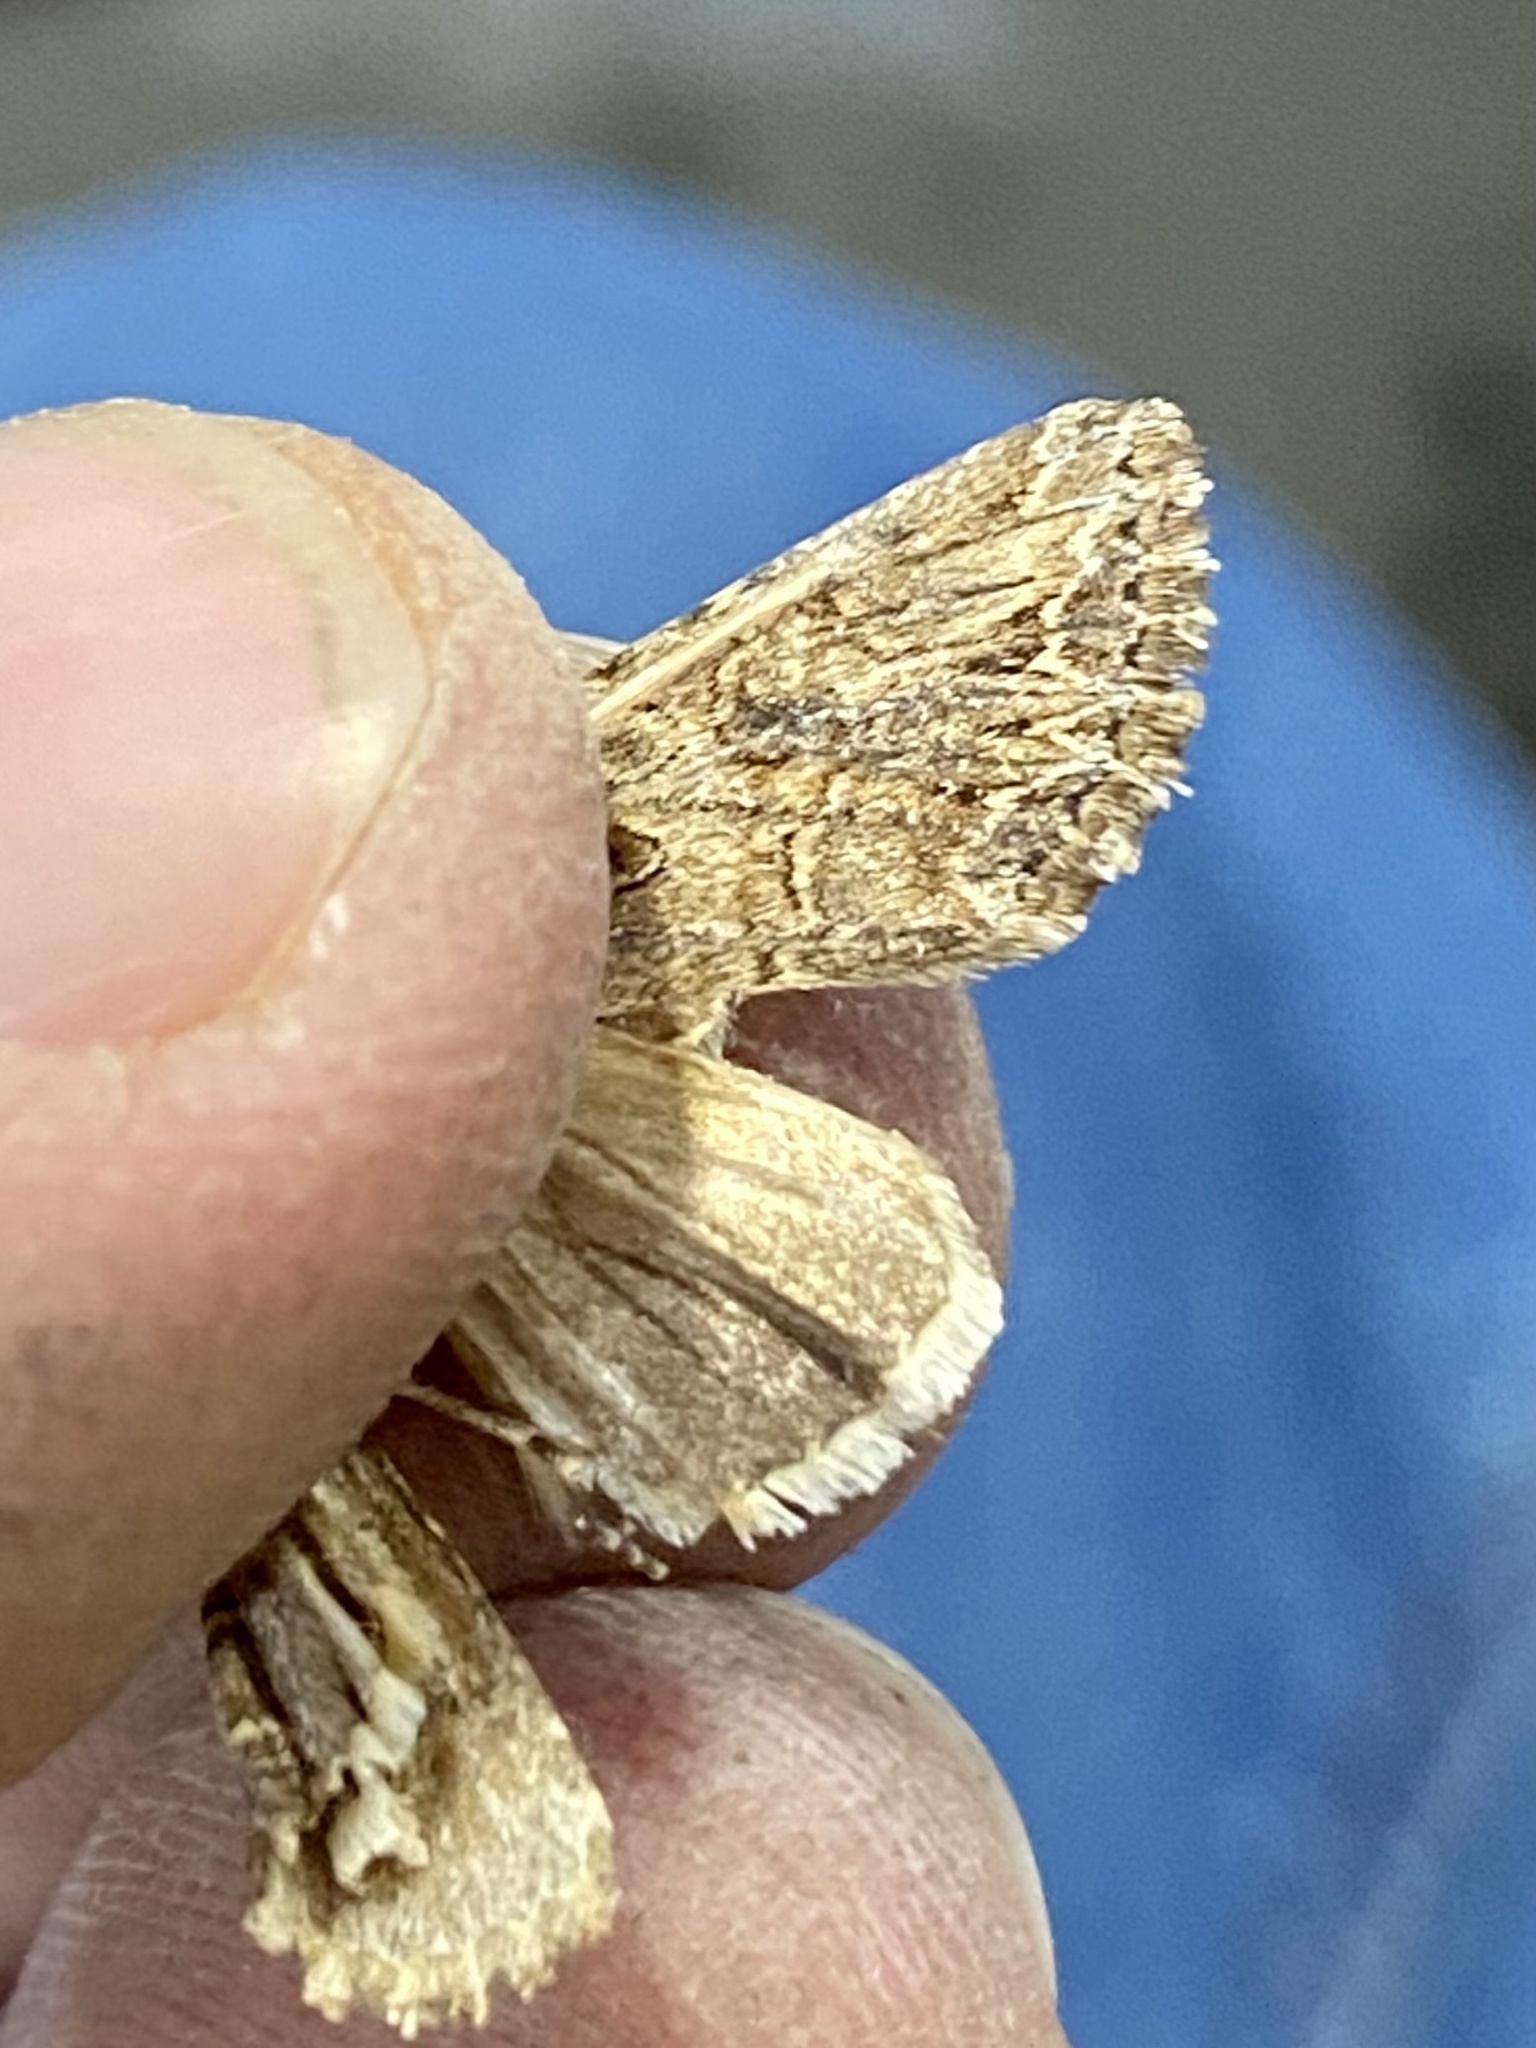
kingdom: Animalia
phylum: Arthropoda
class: Insecta
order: Lepidoptera
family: Noctuidae
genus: Anarta
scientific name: Anarta mutata
